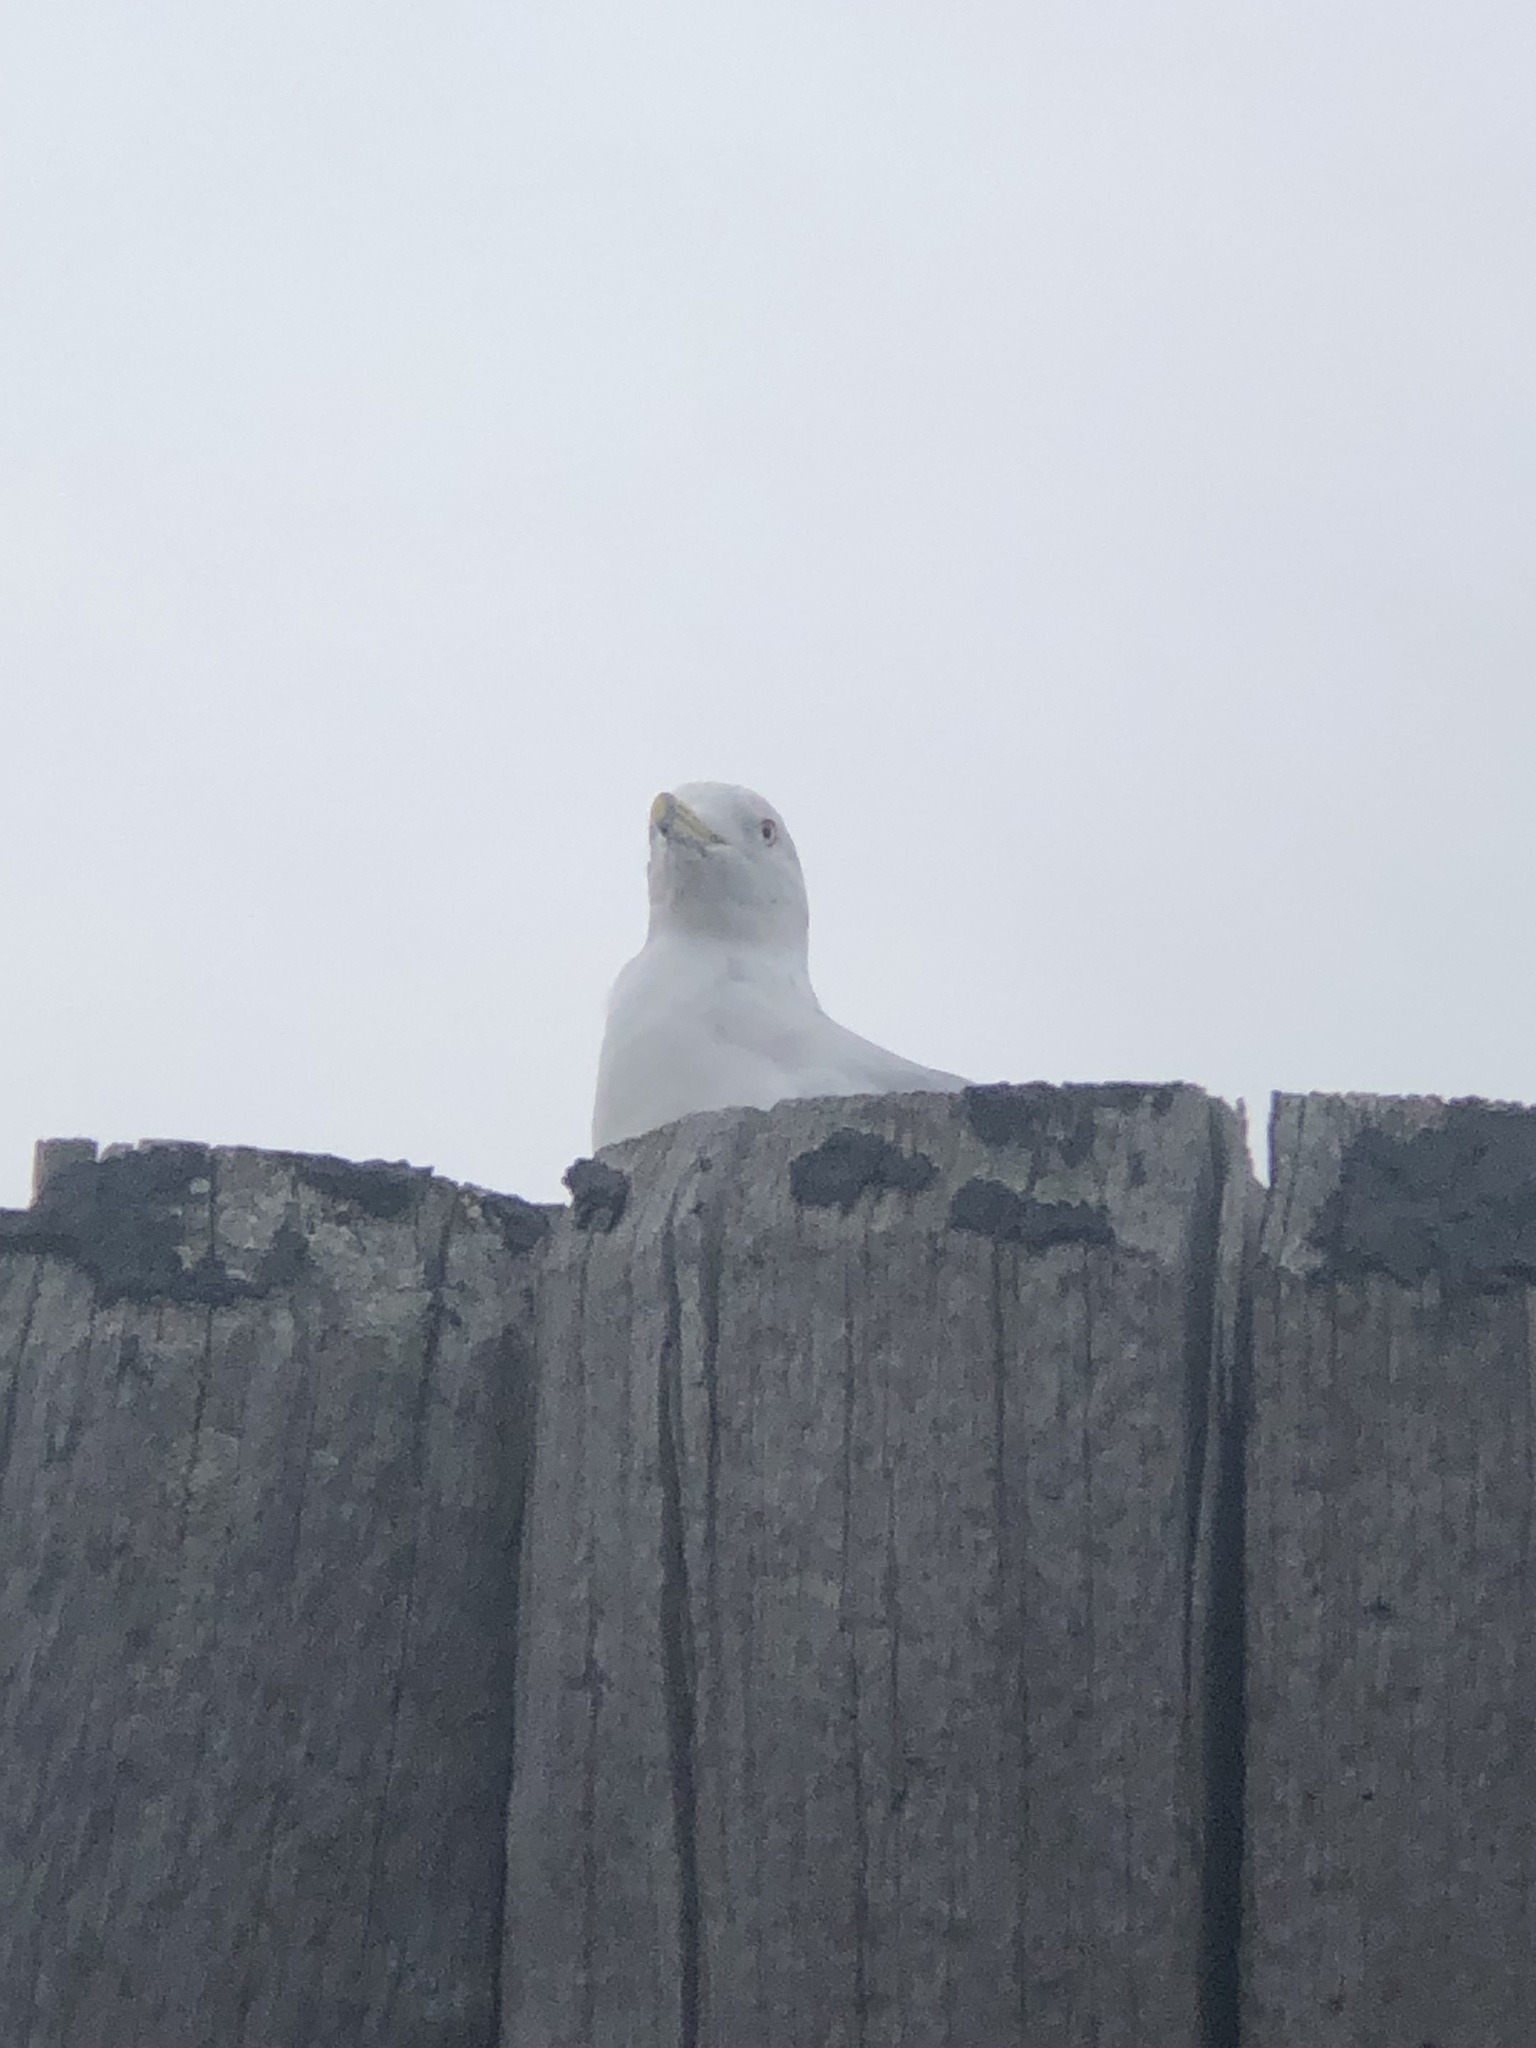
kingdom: Animalia
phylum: Chordata
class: Aves
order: Charadriiformes
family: Laridae
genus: Larus
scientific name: Larus delawarensis
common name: Ring-billed gull
